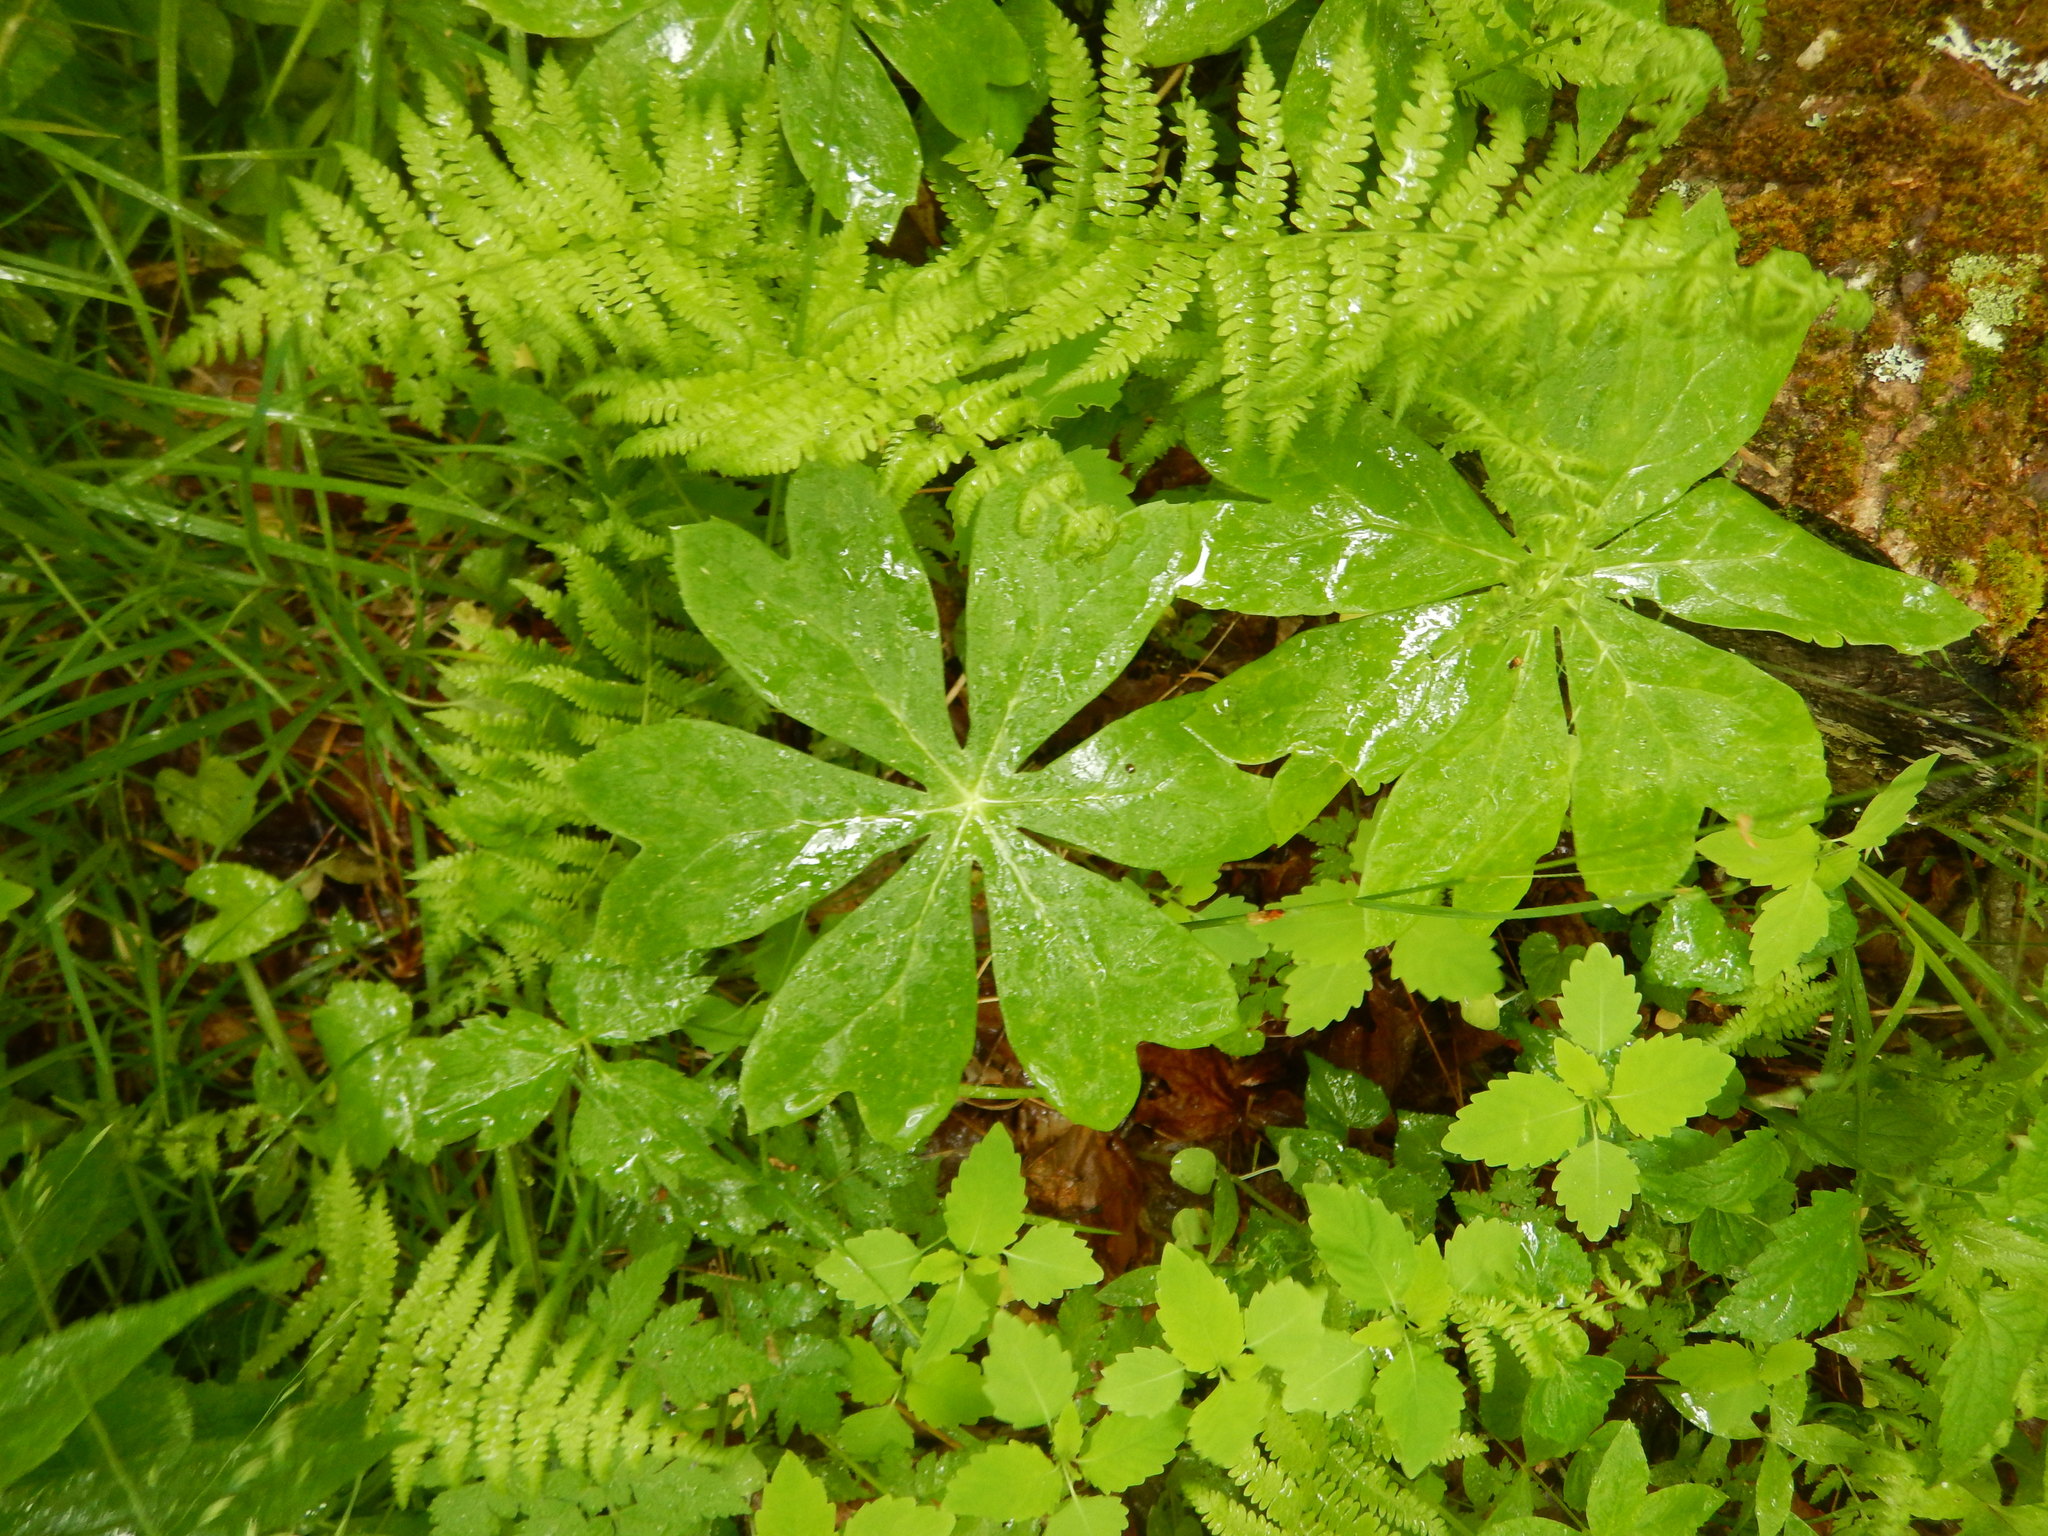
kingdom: Plantae
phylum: Tracheophyta
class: Magnoliopsida
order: Ranunculales
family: Berberidaceae
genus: Podophyllum
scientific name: Podophyllum peltatum
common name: Wild mandrake
